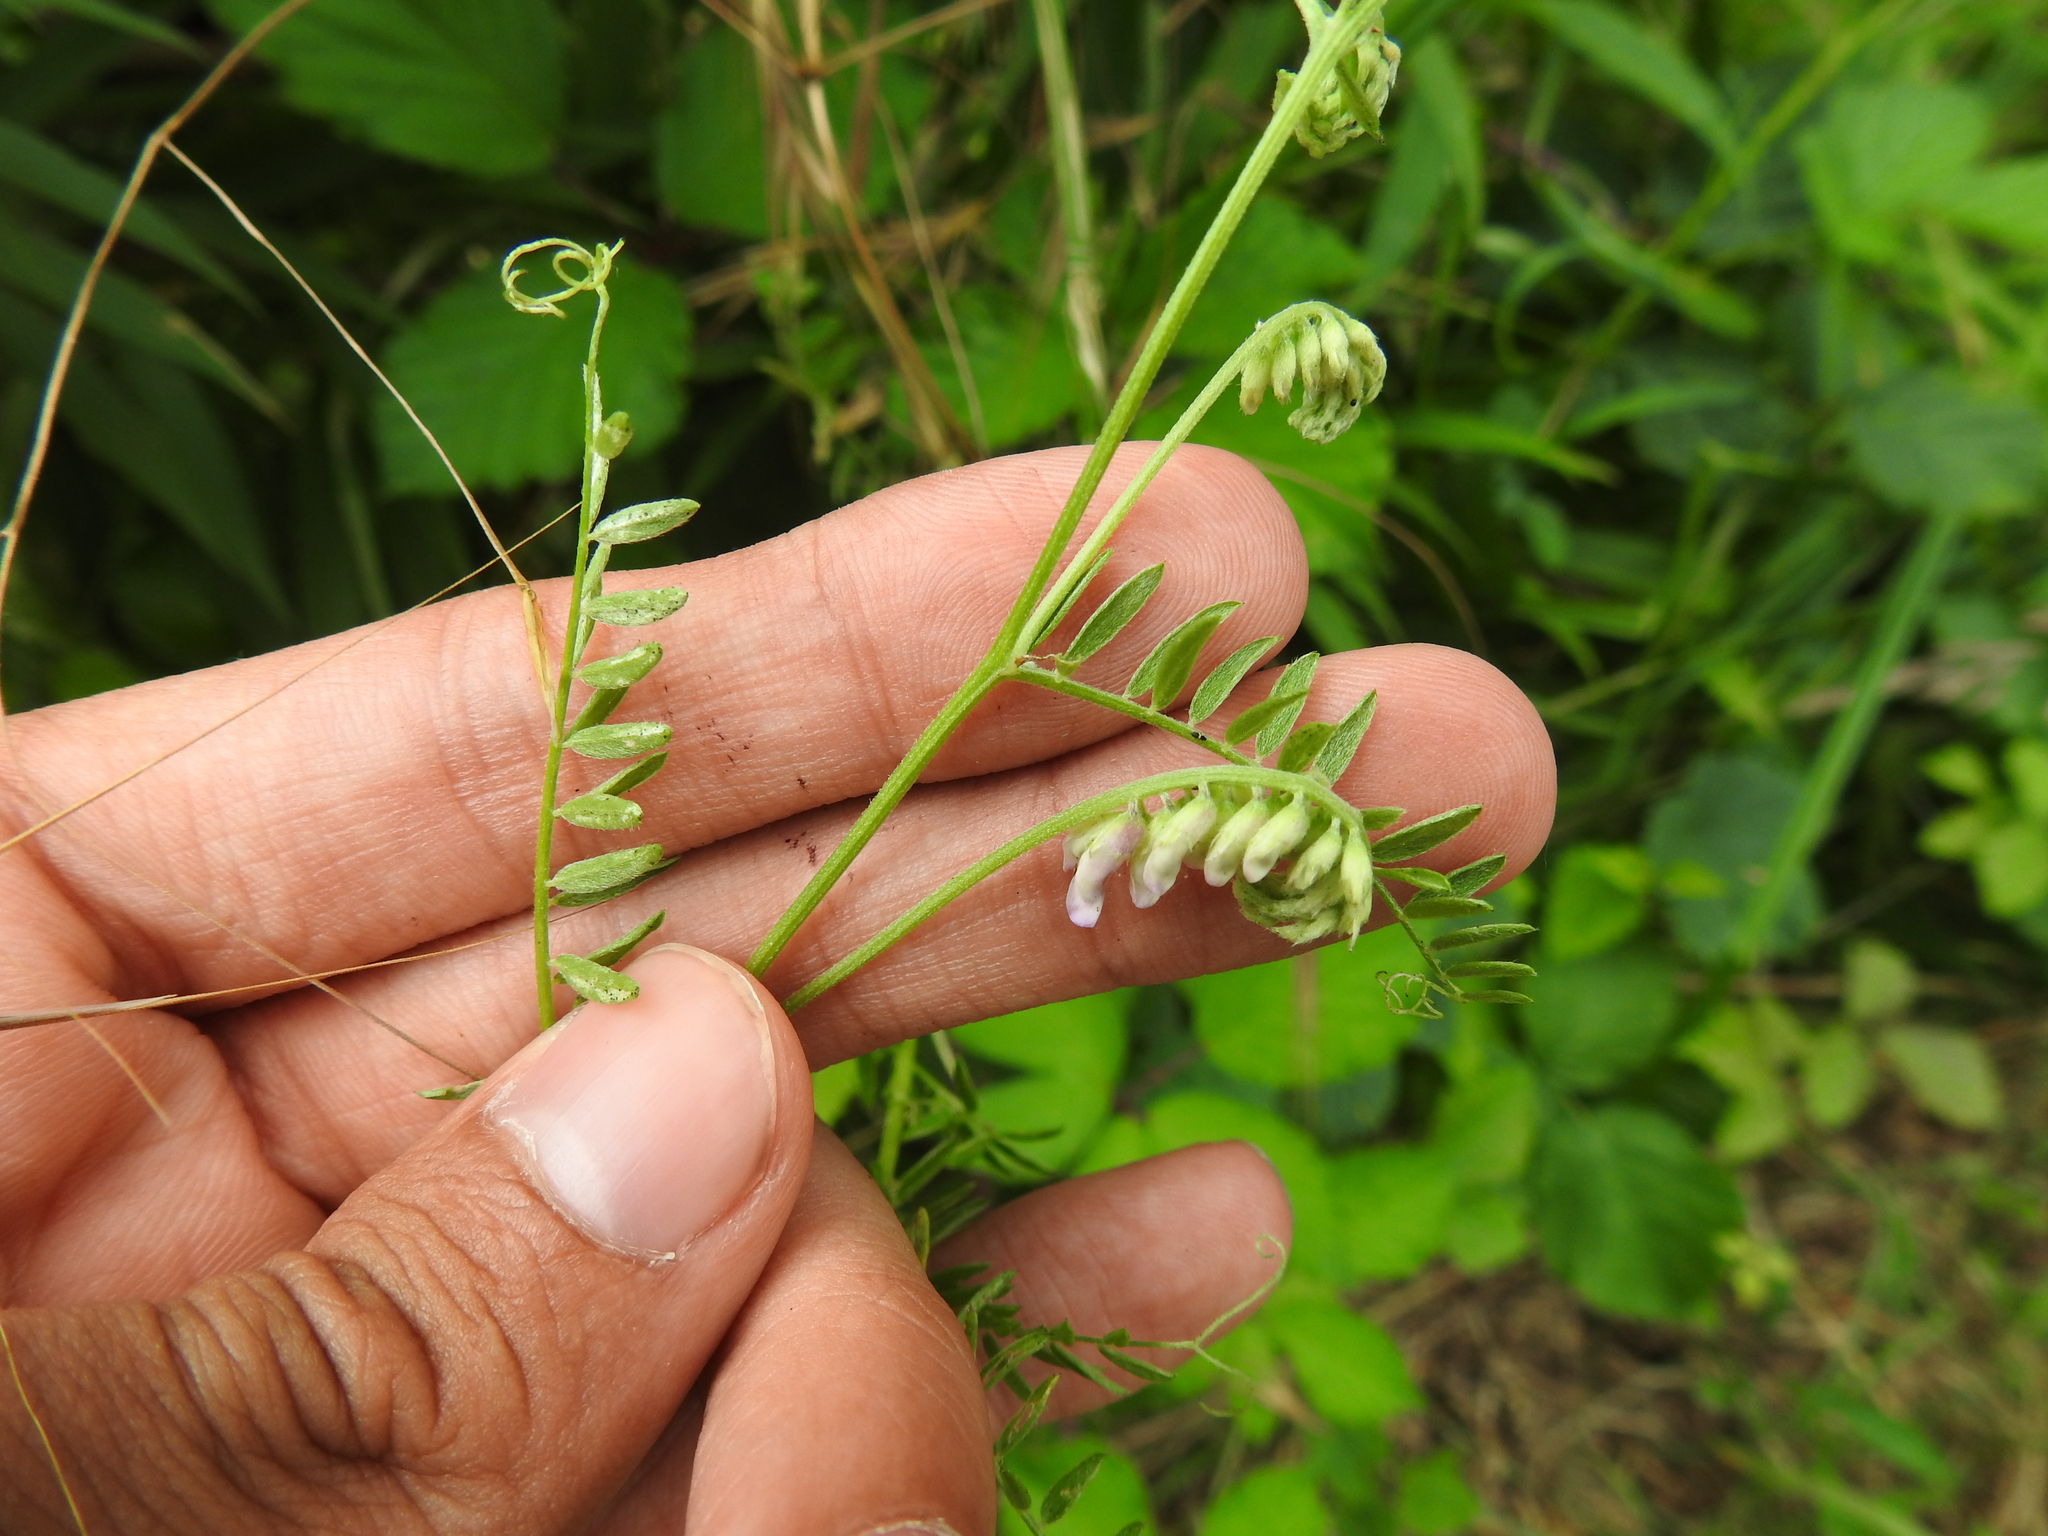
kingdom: Plantae
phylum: Tracheophyta
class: Magnoliopsida
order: Fabales
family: Fabaceae
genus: Vicia
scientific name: Vicia cracca
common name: Bird vetch
